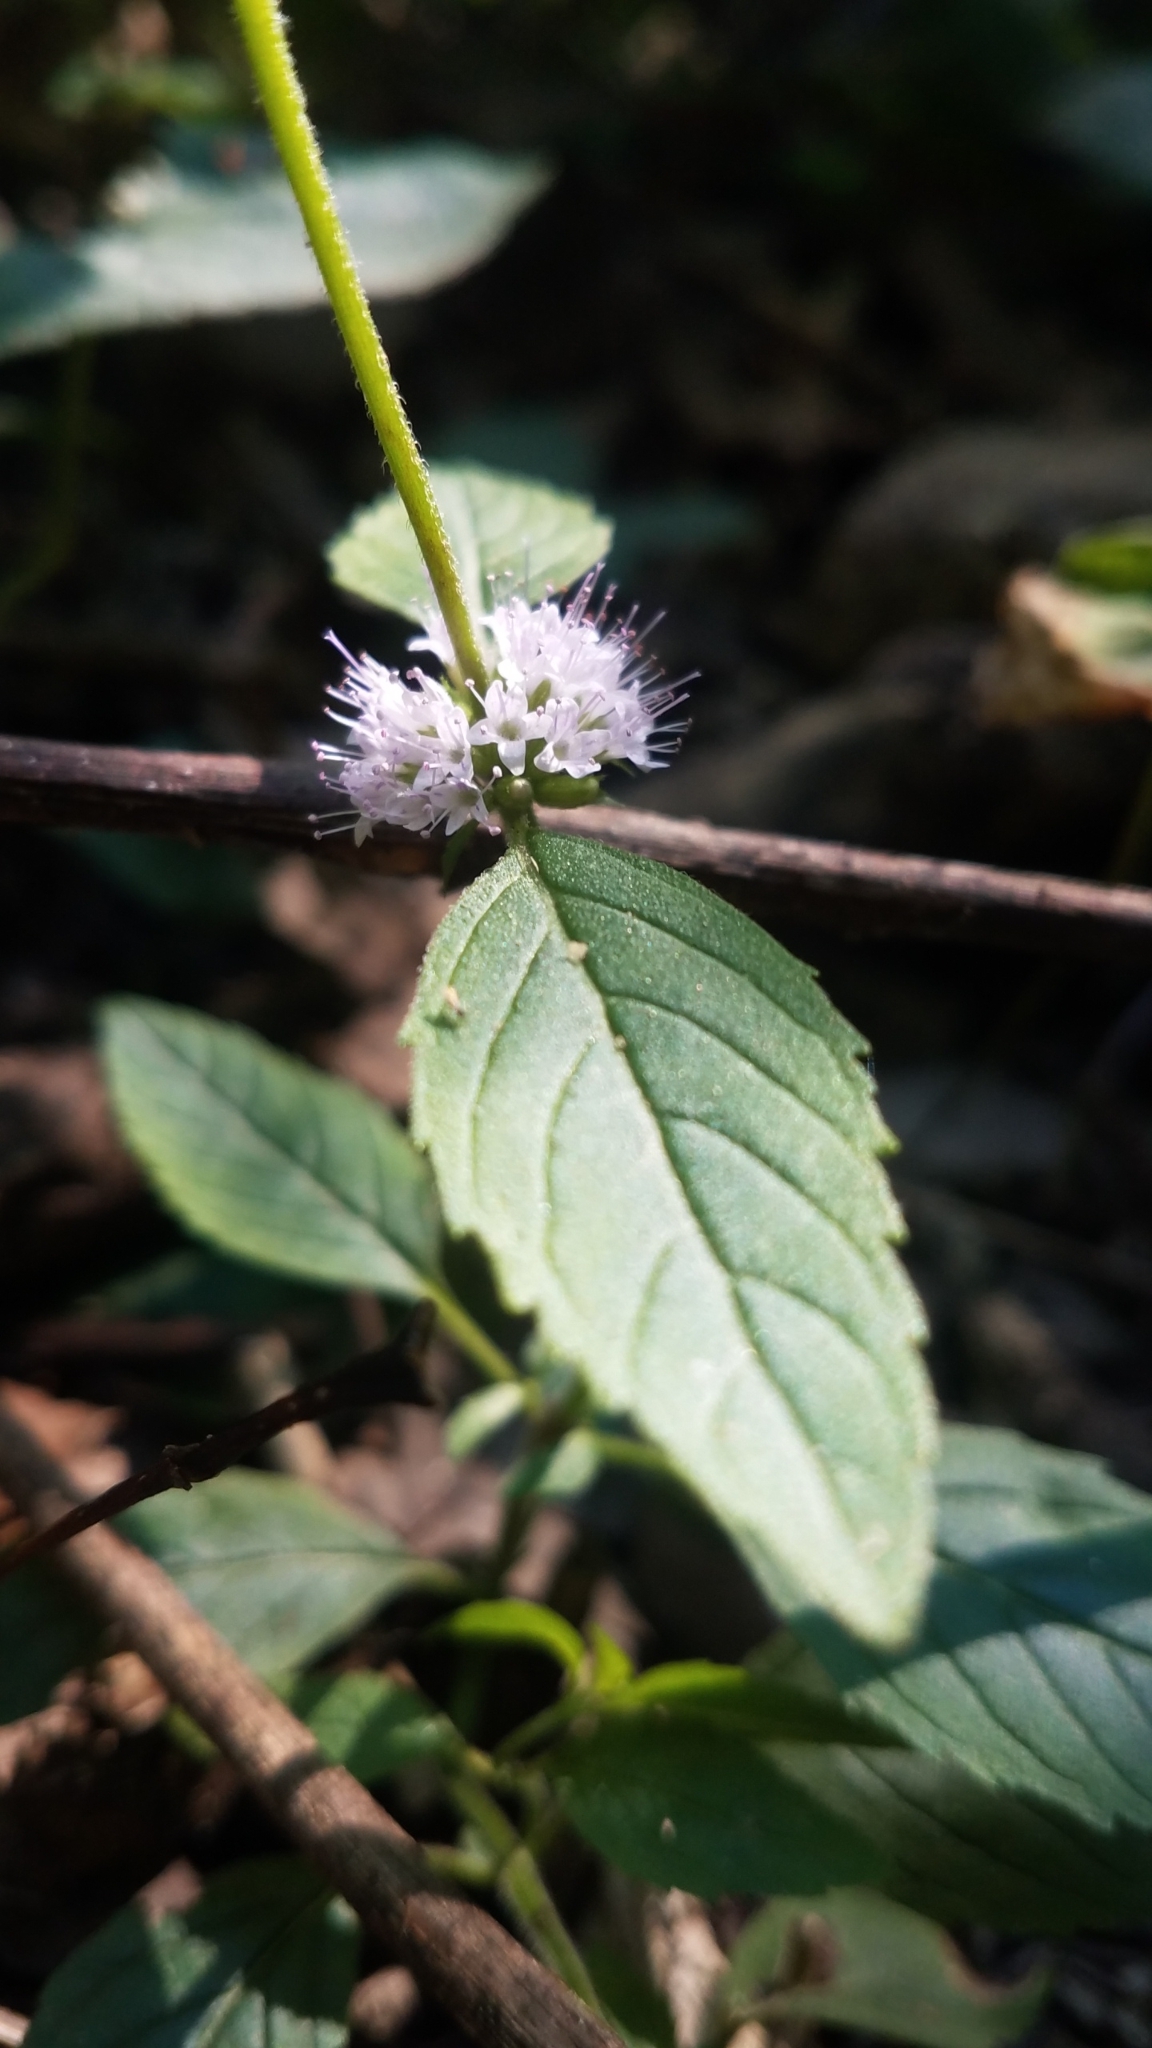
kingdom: Plantae
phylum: Tracheophyta
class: Magnoliopsida
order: Lamiales
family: Lamiaceae
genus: Mentha
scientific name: Mentha canadensis
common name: American corn mint
